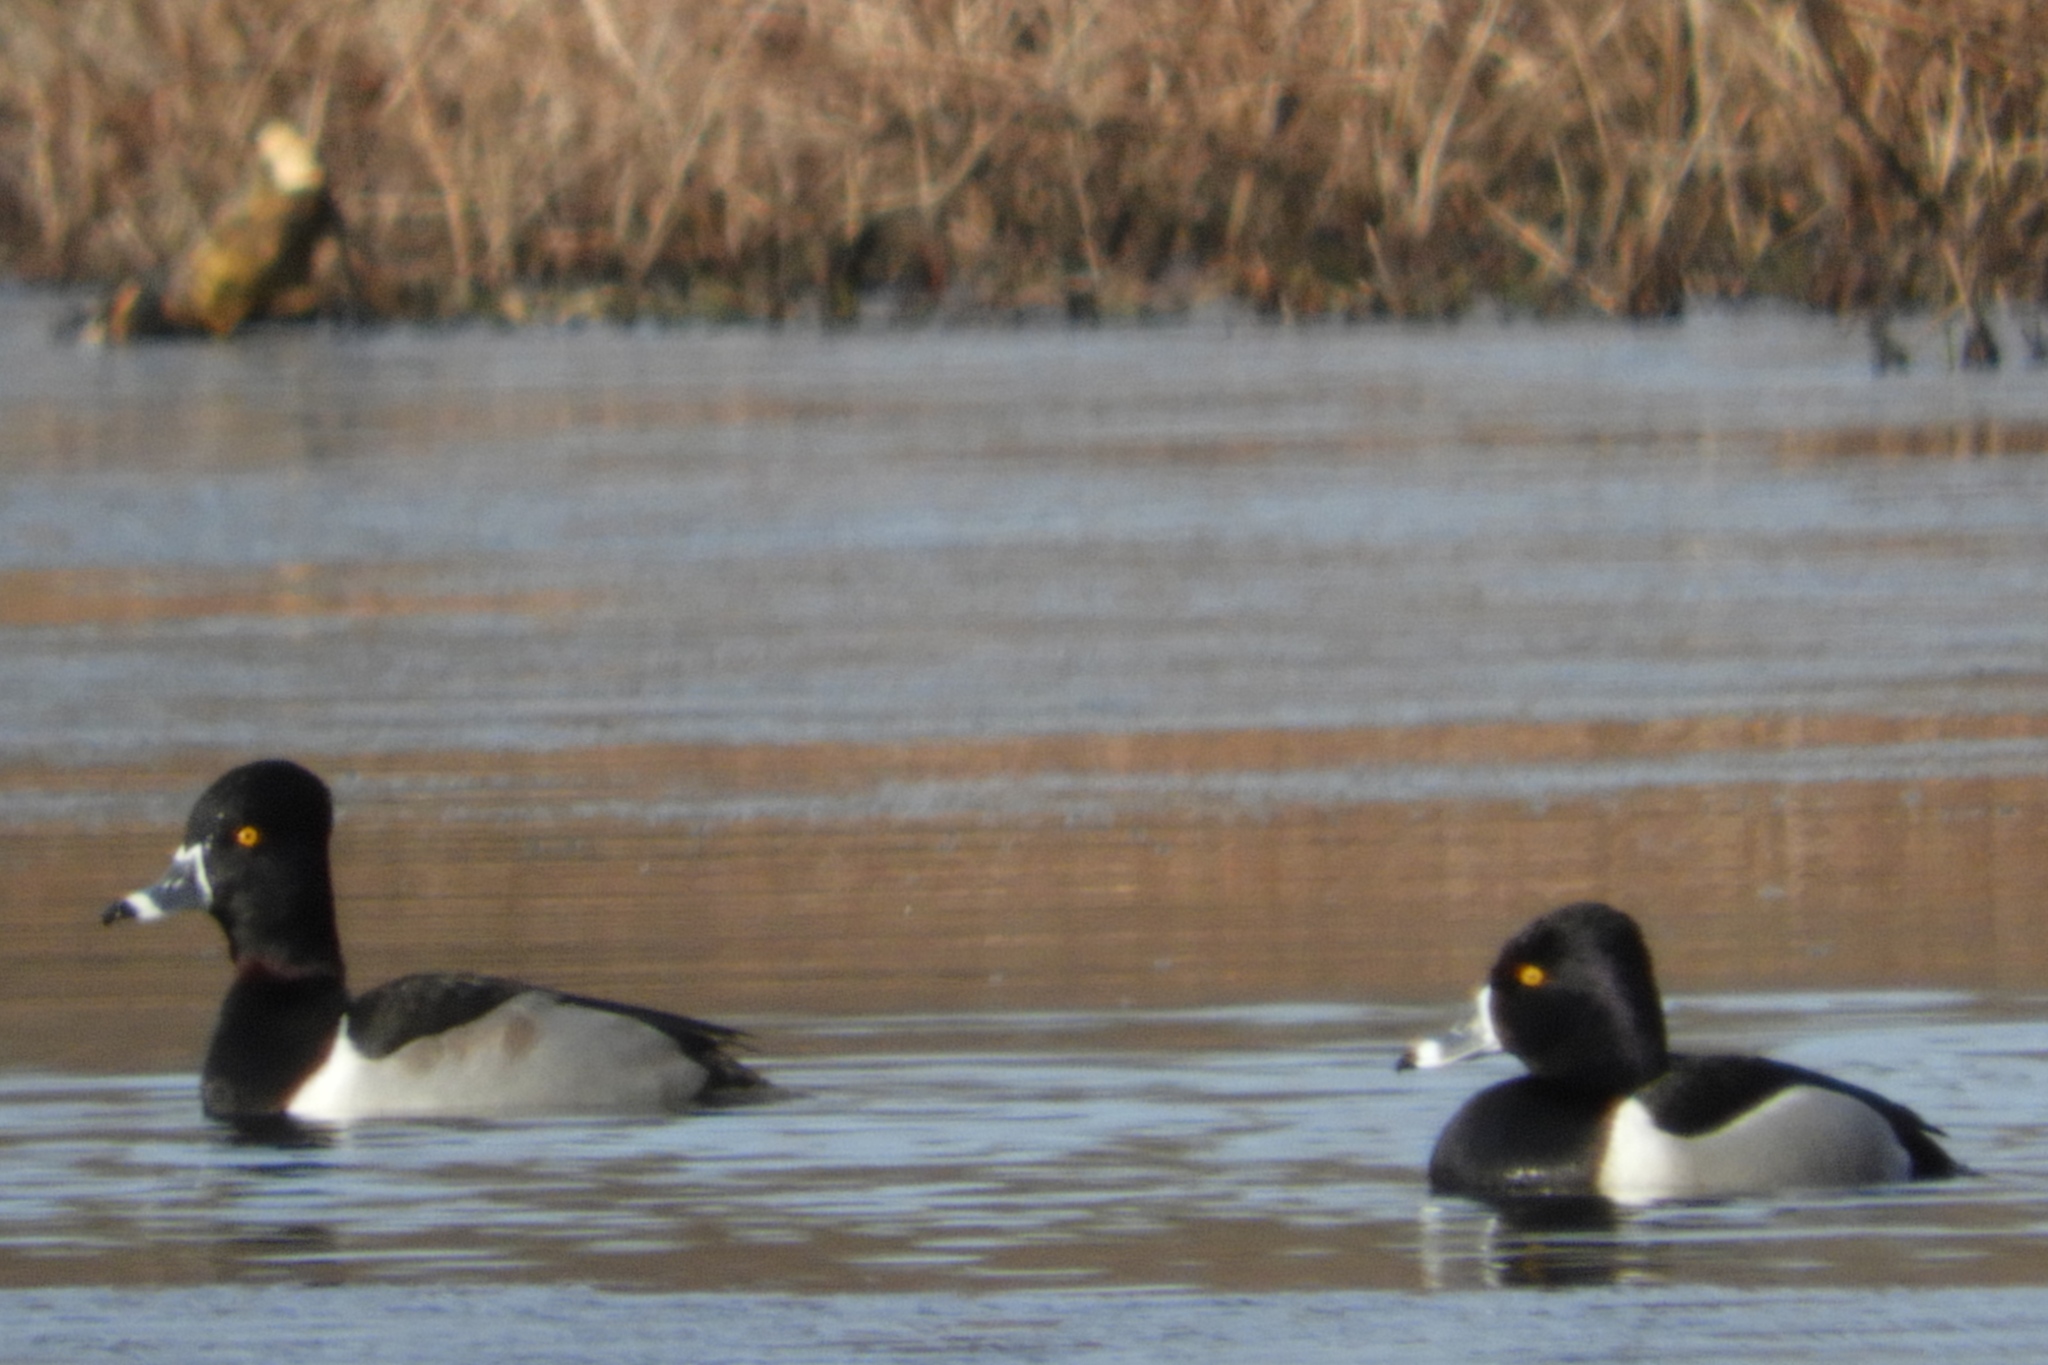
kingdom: Animalia
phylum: Chordata
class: Aves
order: Anseriformes
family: Anatidae
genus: Aythya
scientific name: Aythya collaris
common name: Ring-necked duck
